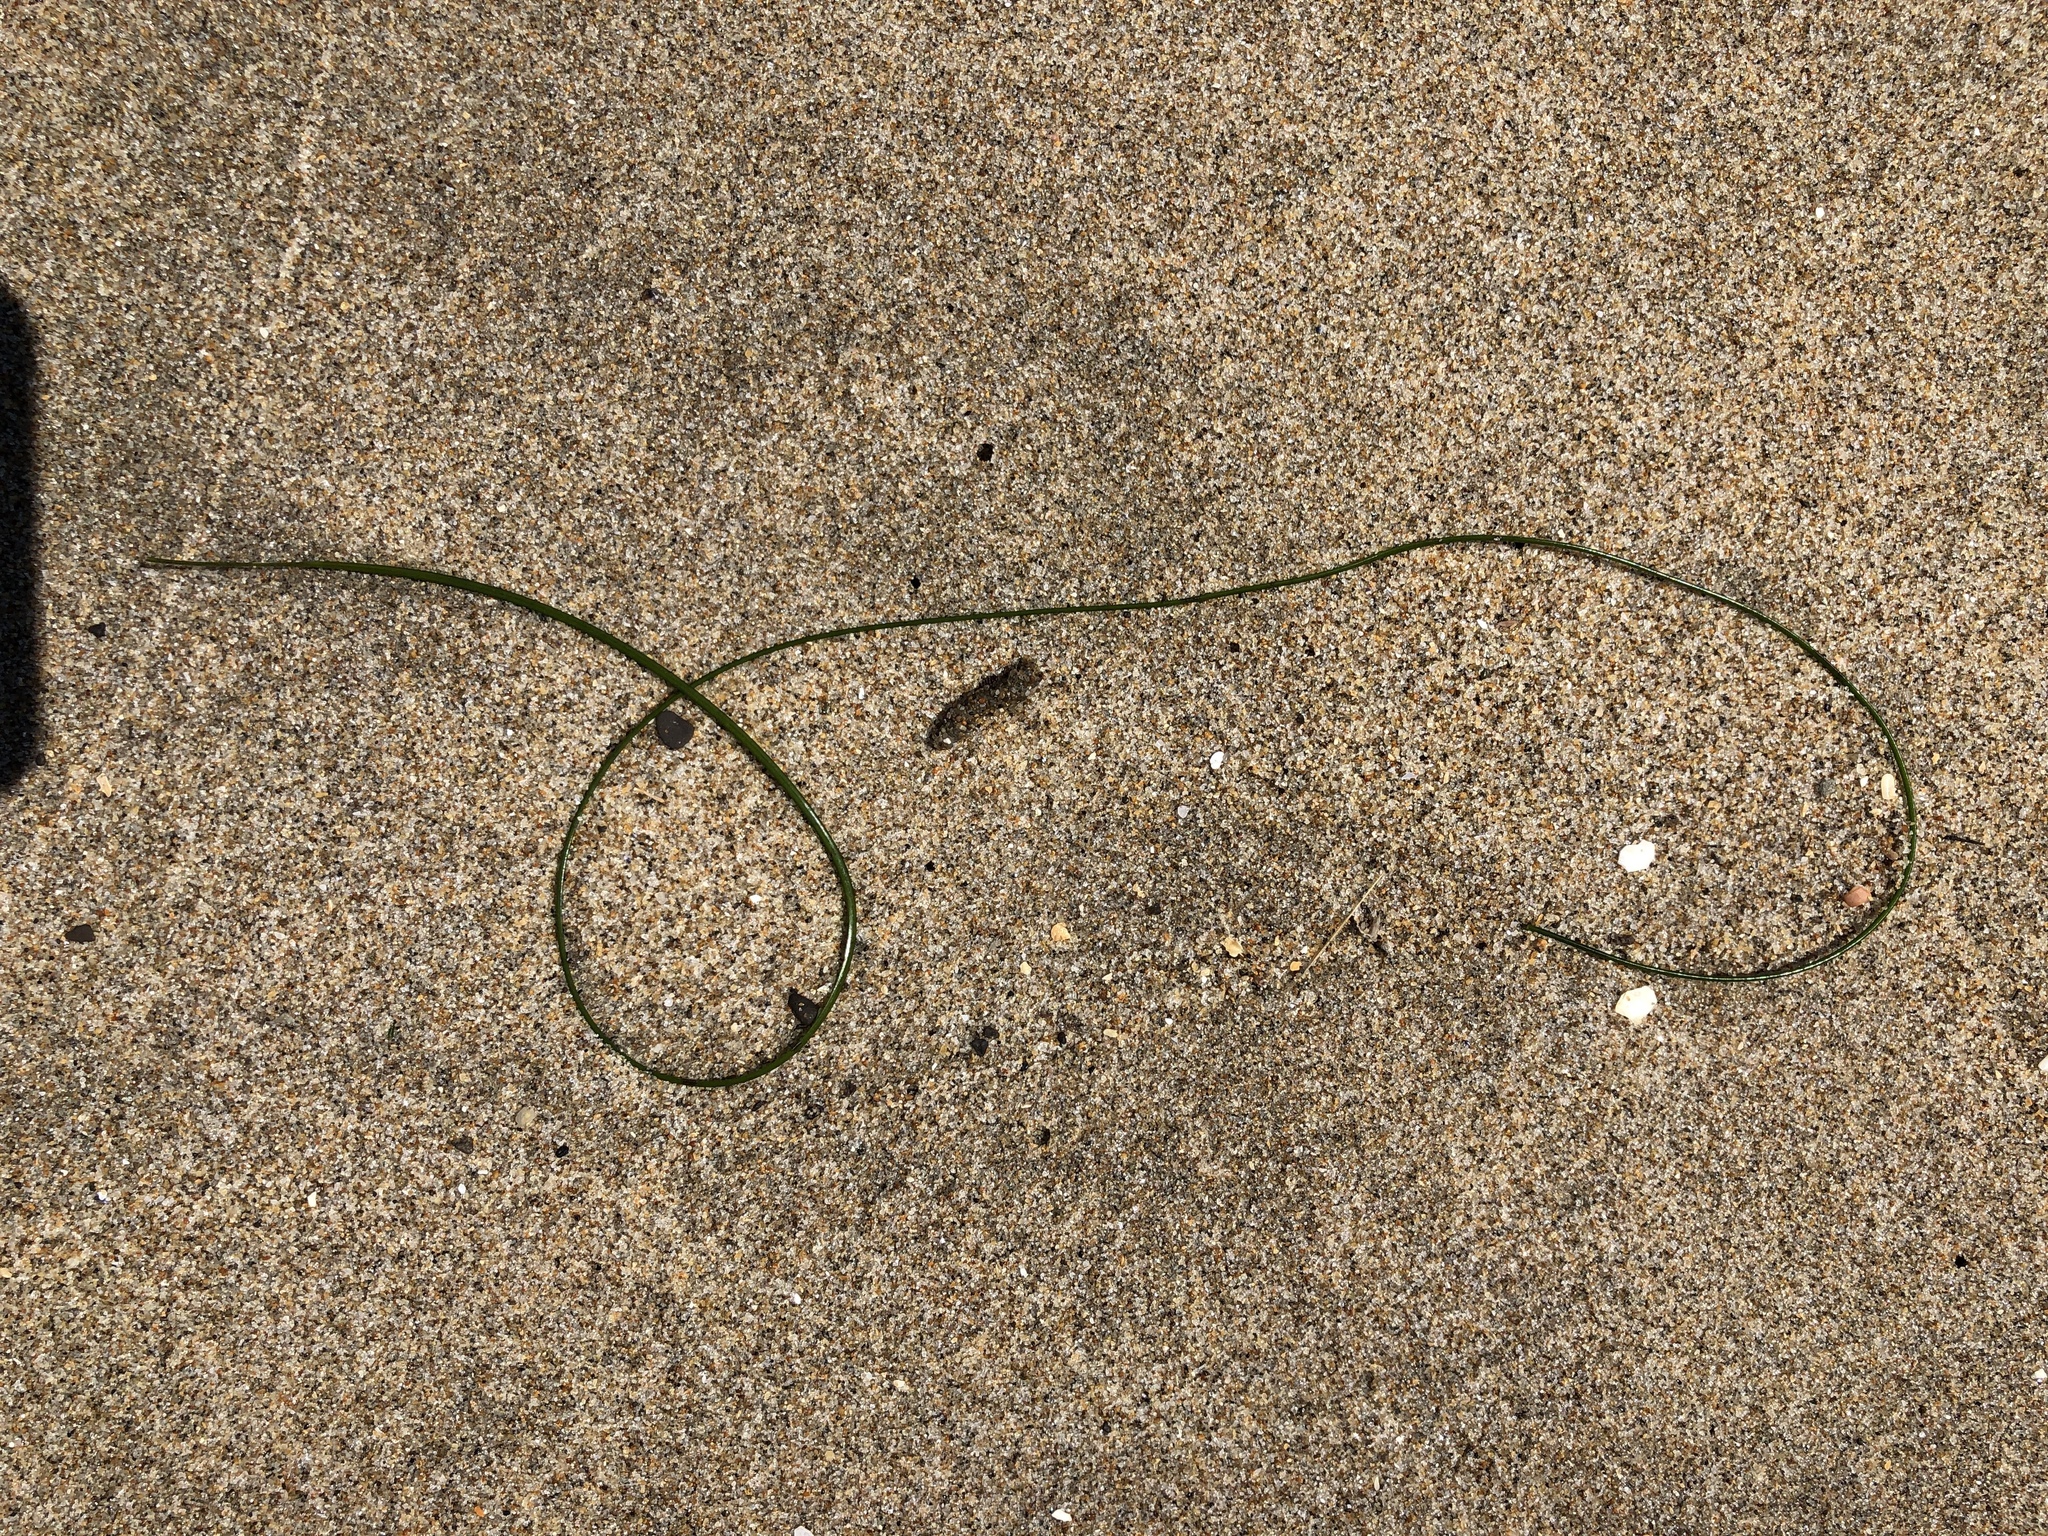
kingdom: Plantae
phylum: Tracheophyta
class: Liliopsida
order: Alismatales
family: Zosteraceae
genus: Phyllospadix
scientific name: Phyllospadix torreyi
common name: Surfgrass
